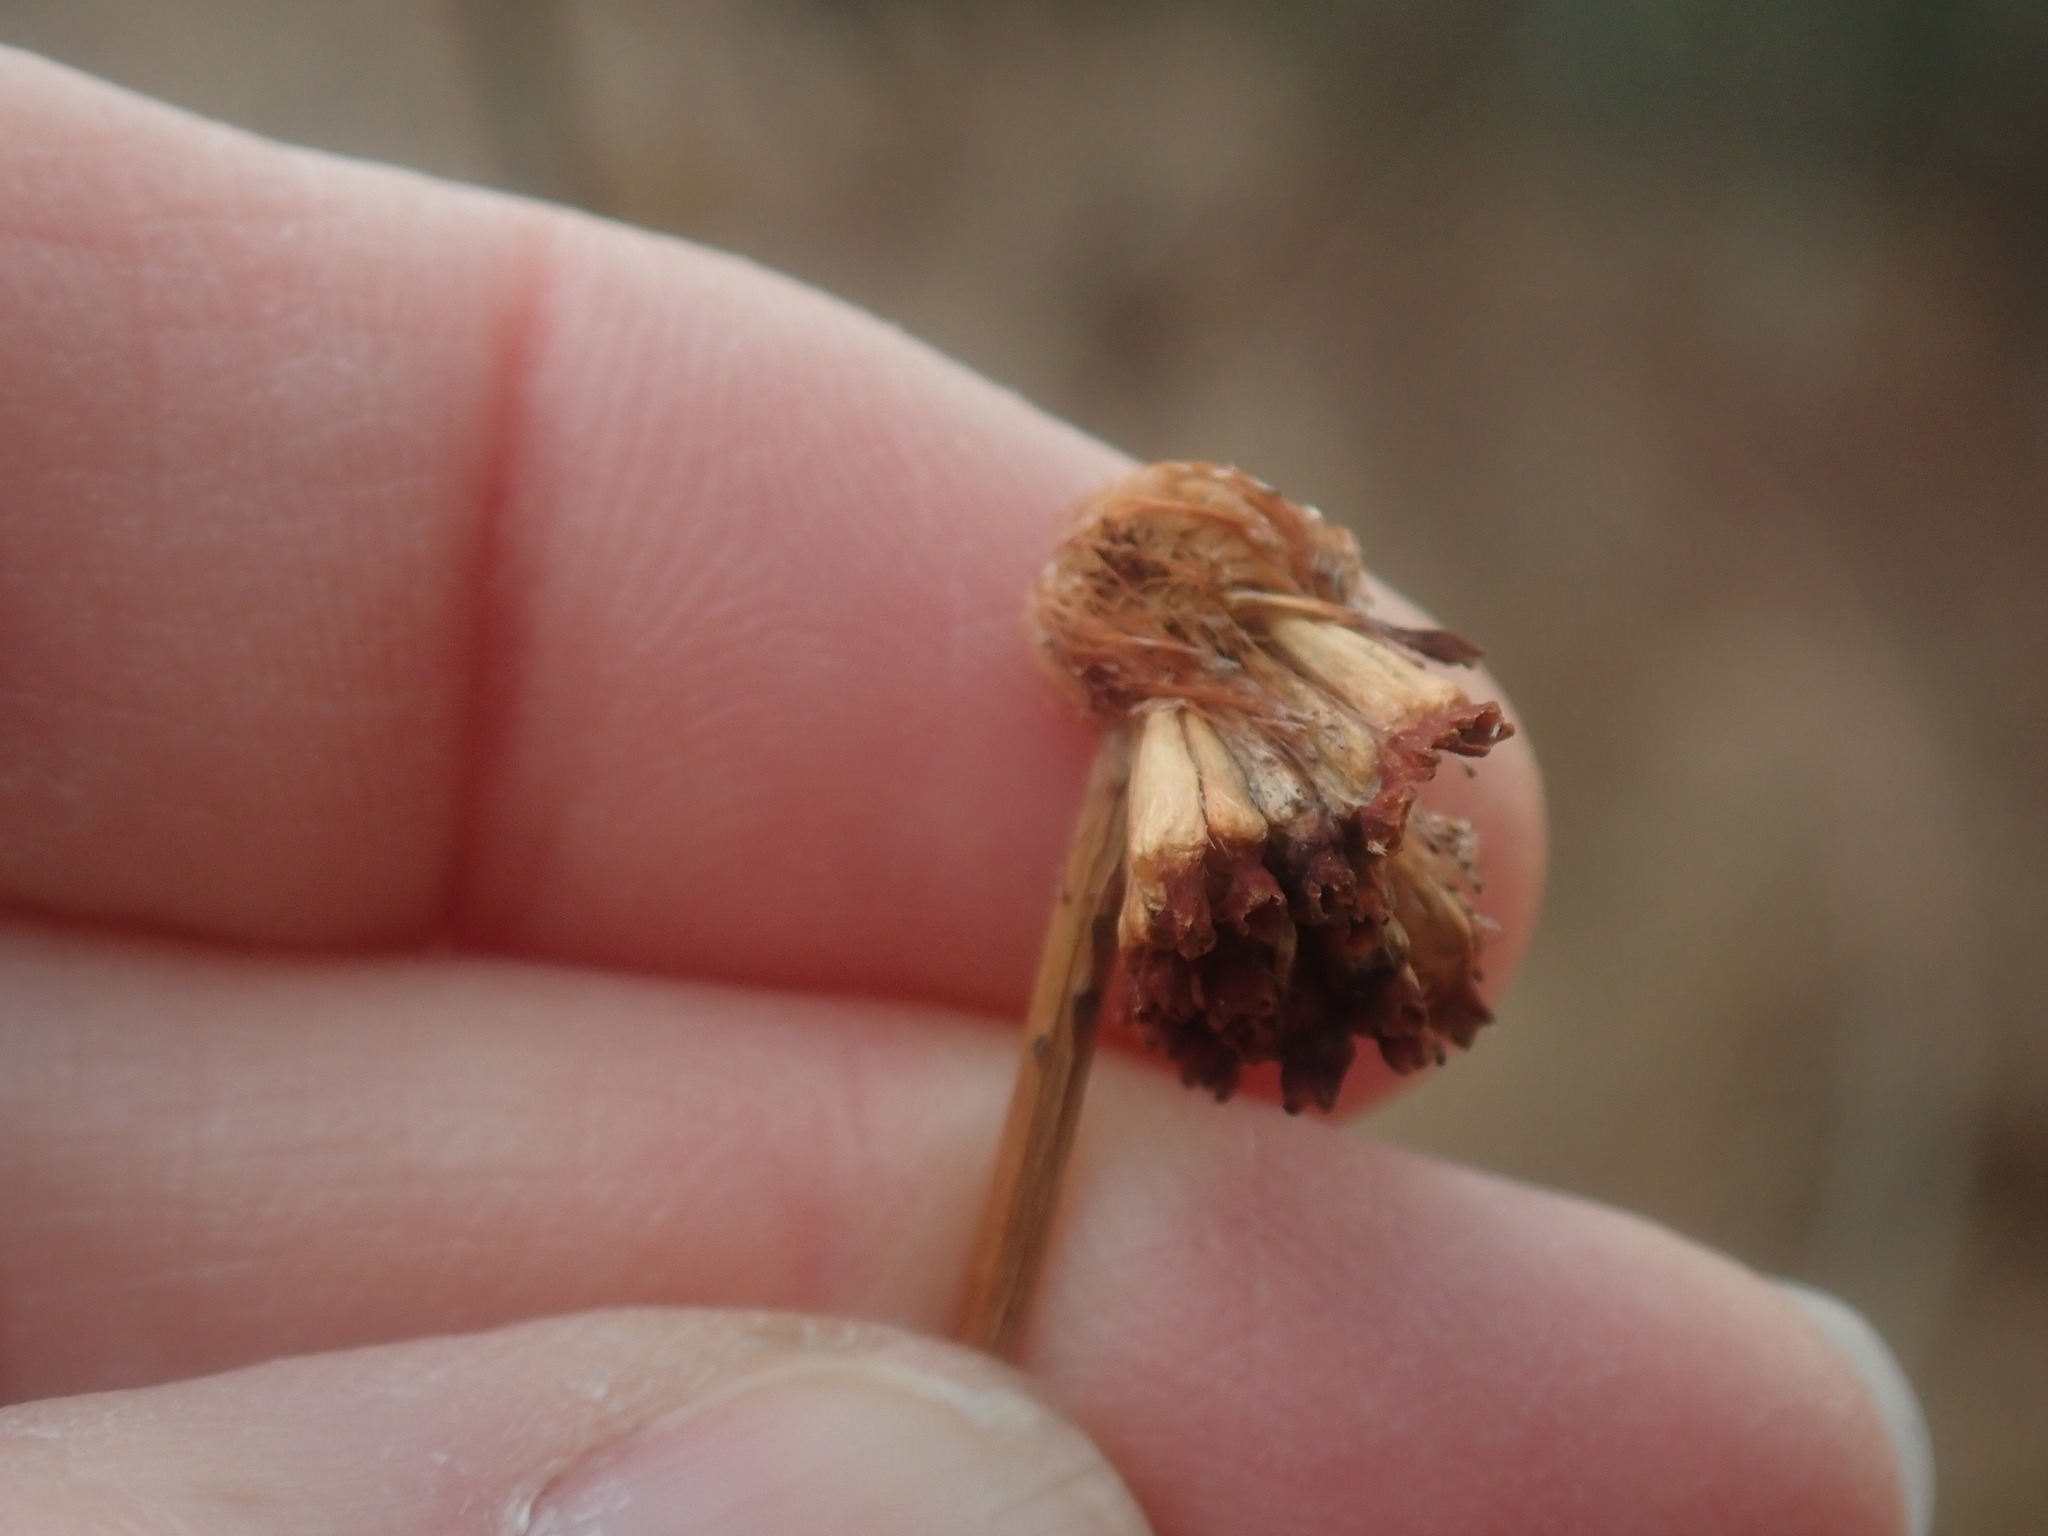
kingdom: Plantae
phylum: Tracheophyta
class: Magnoliopsida
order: Gentianales
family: Rubiaceae
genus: Cephalanthus
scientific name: Cephalanthus occidentalis
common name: Button-willow
